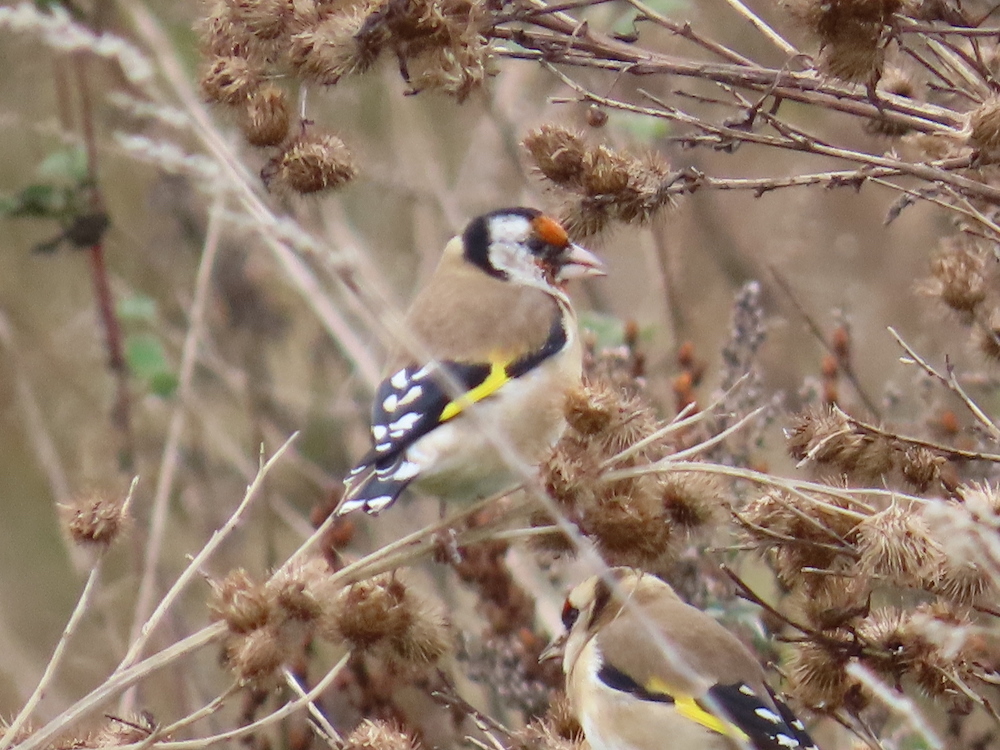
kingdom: Animalia
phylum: Chordata
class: Aves
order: Passeriformes
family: Fringillidae
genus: Carduelis
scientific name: Carduelis carduelis
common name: European goldfinch
